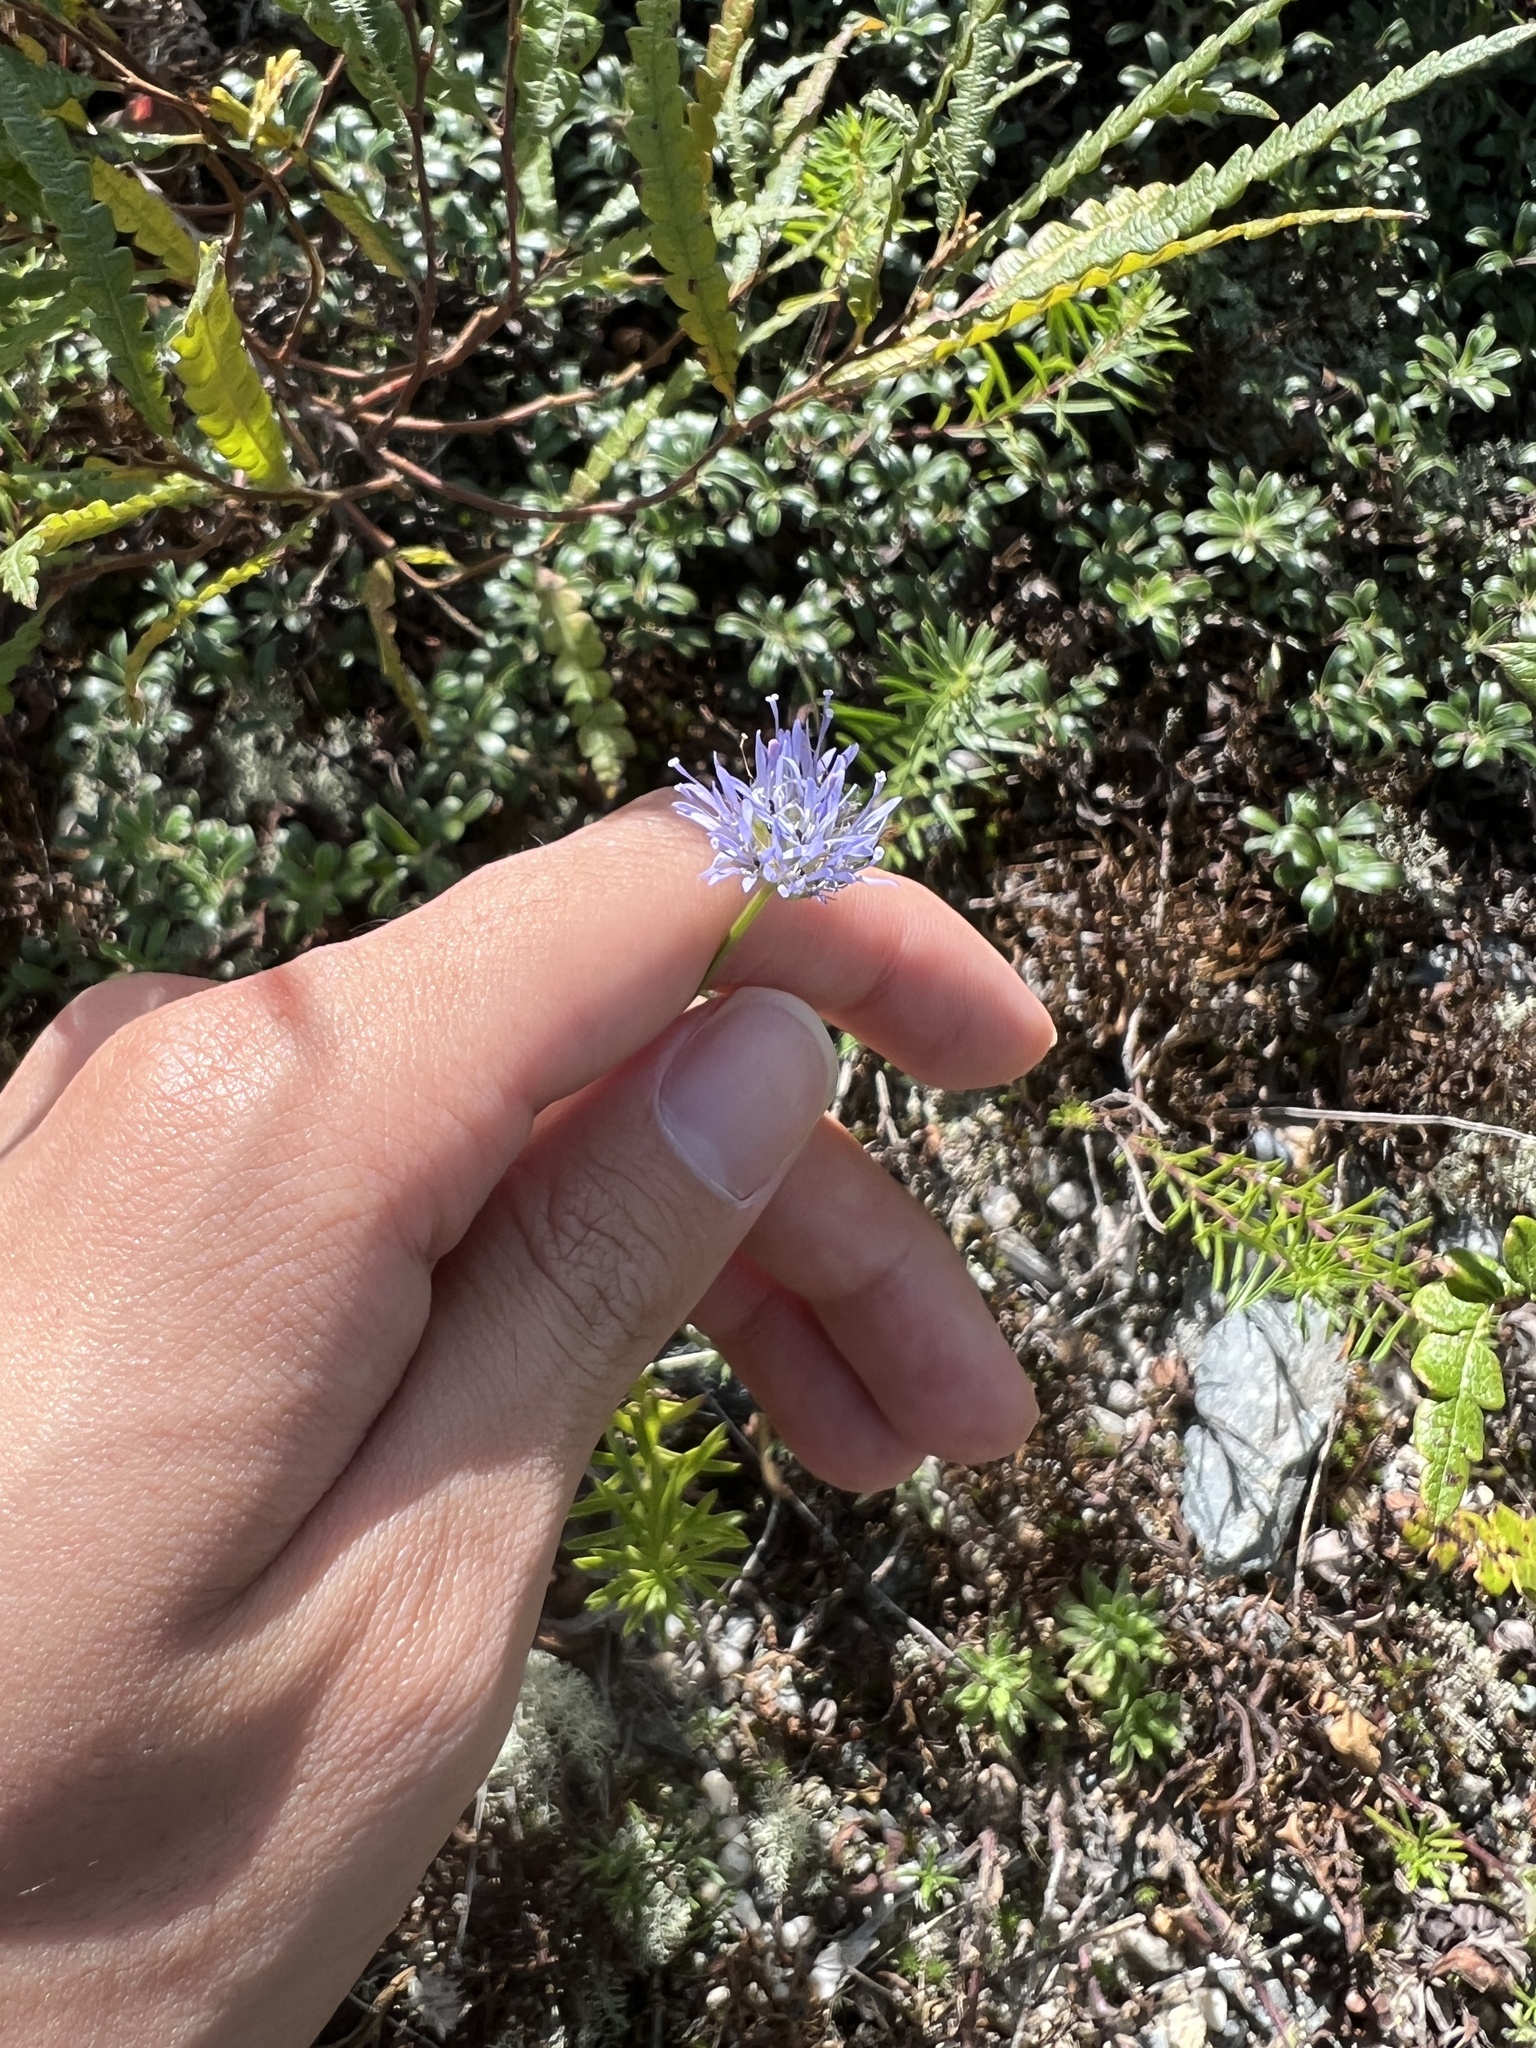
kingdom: Plantae
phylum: Tracheophyta
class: Magnoliopsida
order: Asterales
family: Campanulaceae
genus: Jasione
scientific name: Jasione montana
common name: Sheep's-bit
